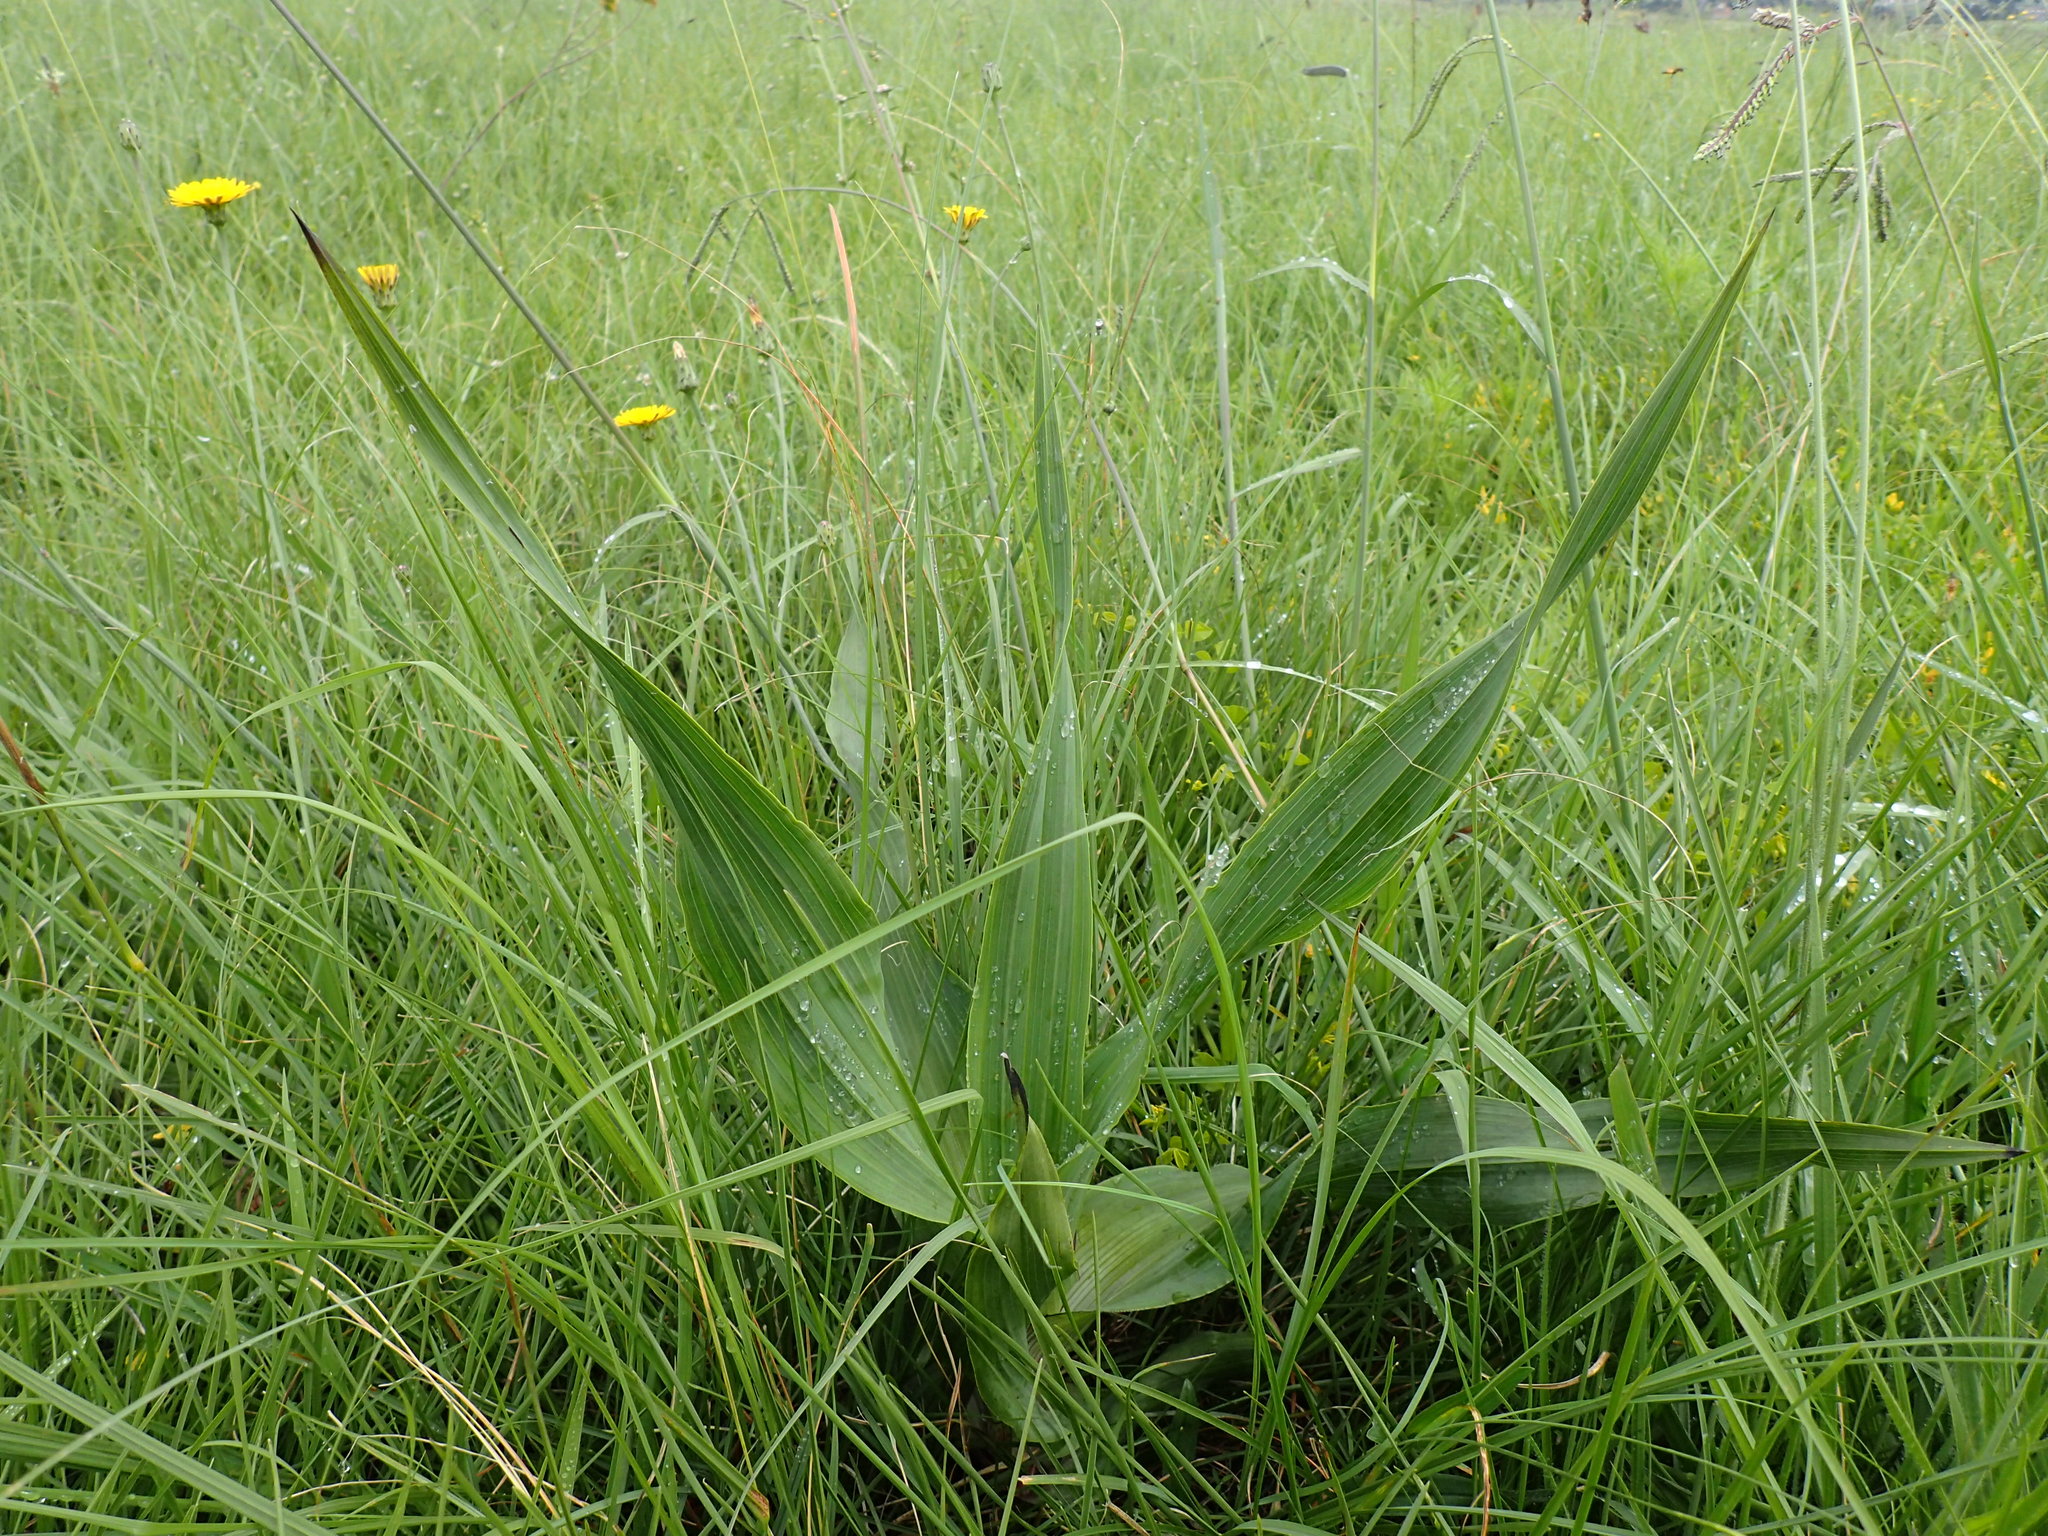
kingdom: Plantae
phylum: Tracheophyta
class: Liliopsida
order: Asparagales
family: Hypoxidaceae
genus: Hypoxis
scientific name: Hypoxis colchicifolia
